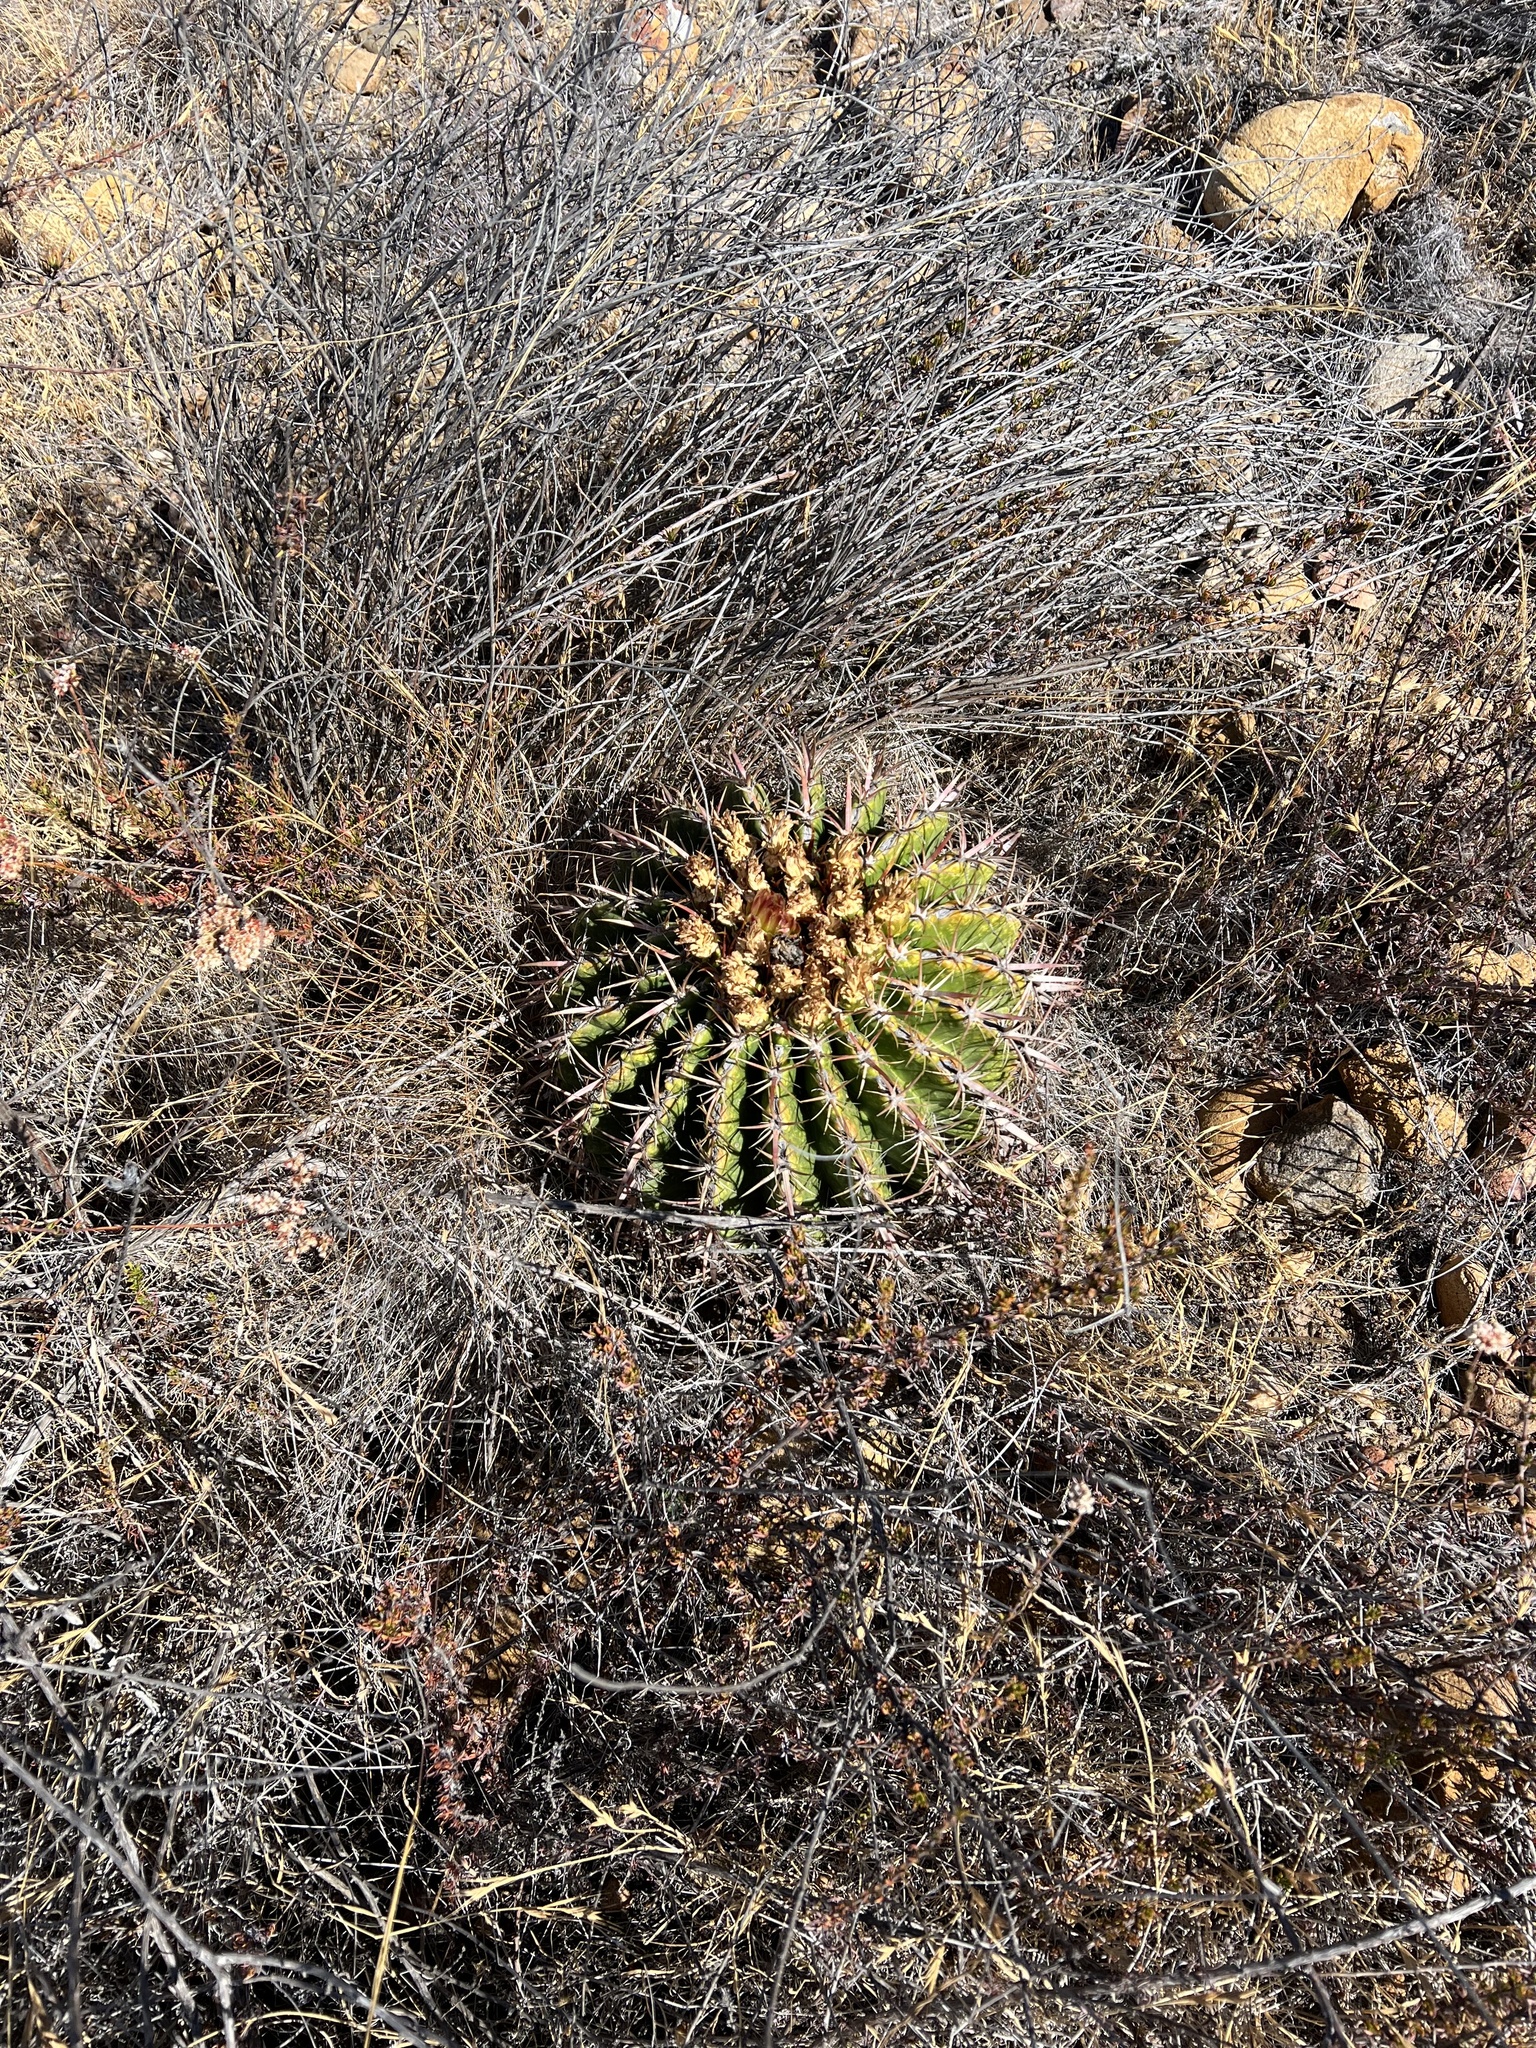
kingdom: Plantae
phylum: Tracheophyta
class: Magnoliopsida
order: Caryophyllales
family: Cactaceae
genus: Ferocactus
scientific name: Ferocactus viridescens
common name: San diego barrel cactus
